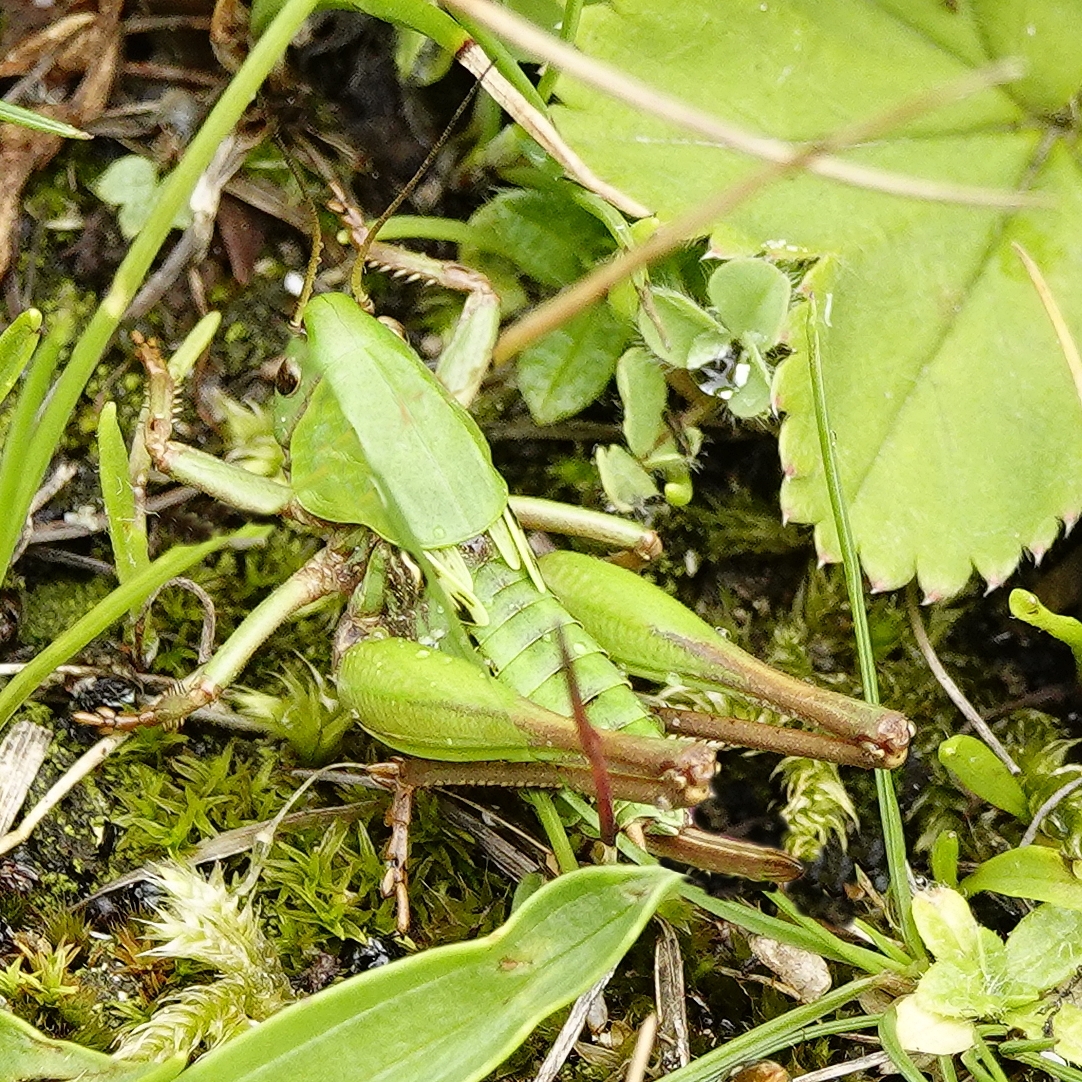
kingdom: Animalia
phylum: Arthropoda
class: Insecta
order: Orthoptera
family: Tettigoniidae
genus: Decticus
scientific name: Decticus verrucivorus
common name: Wart-biter
